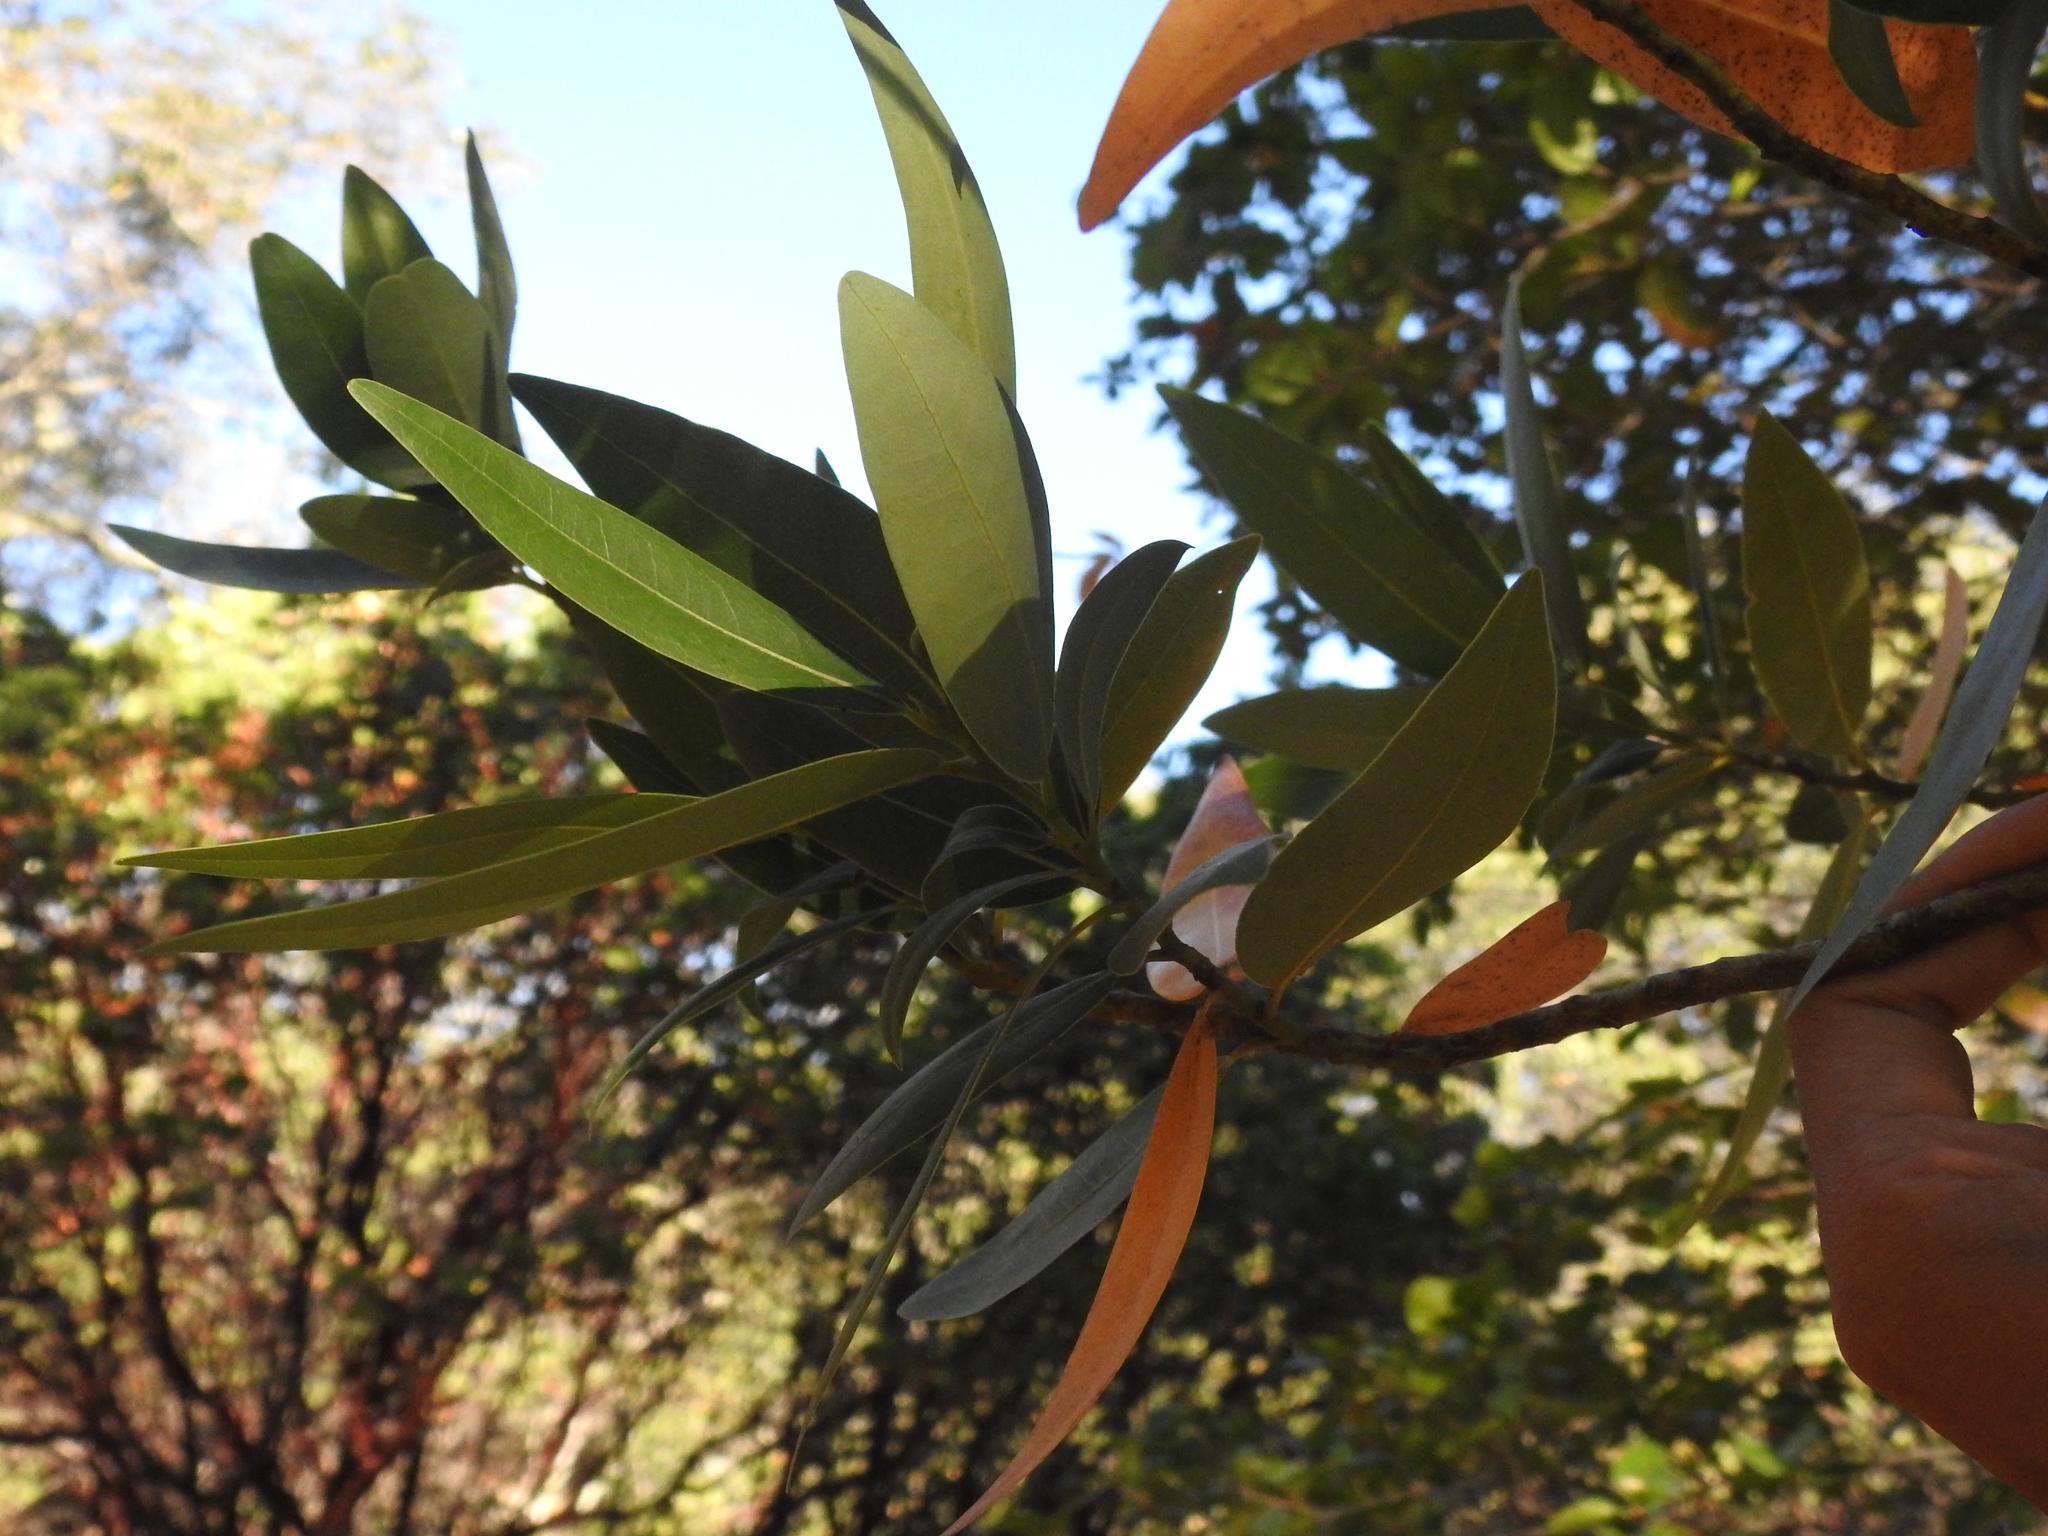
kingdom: Plantae
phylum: Tracheophyta
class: Magnoliopsida
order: Laurales
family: Lauraceae
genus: Umbellularia
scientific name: Umbellularia californica
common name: California bay
